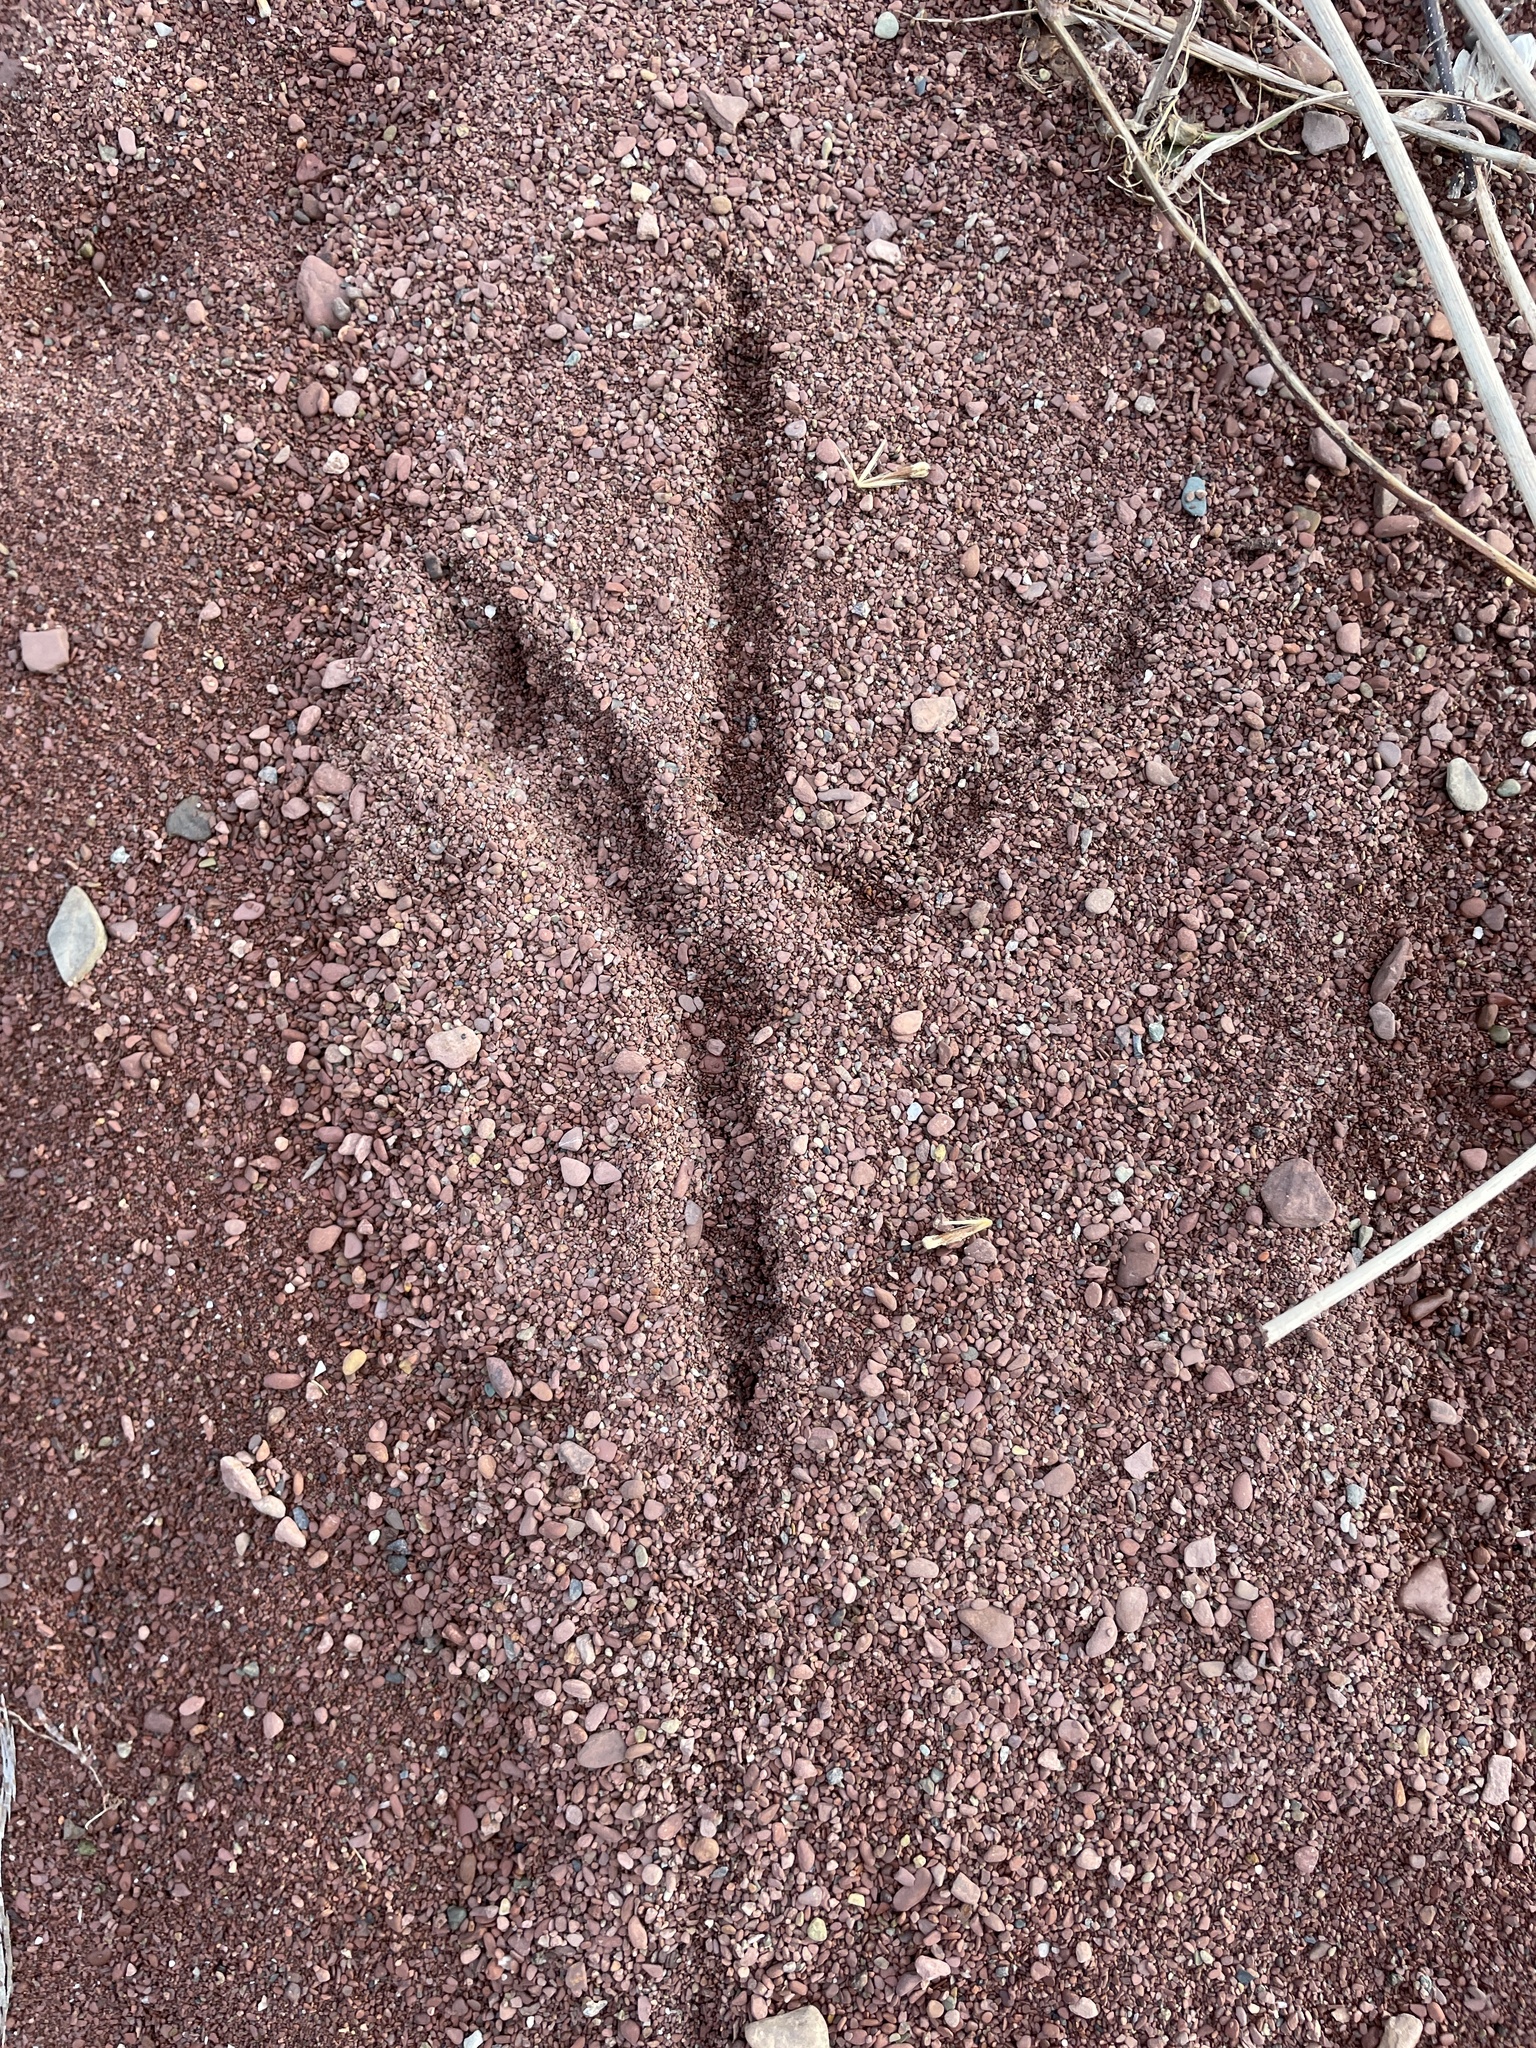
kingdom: Animalia
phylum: Chordata
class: Aves
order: Pelecaniformes
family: Ardeidae
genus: Ardea
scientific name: Ardea herodias
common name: Great blue heron
